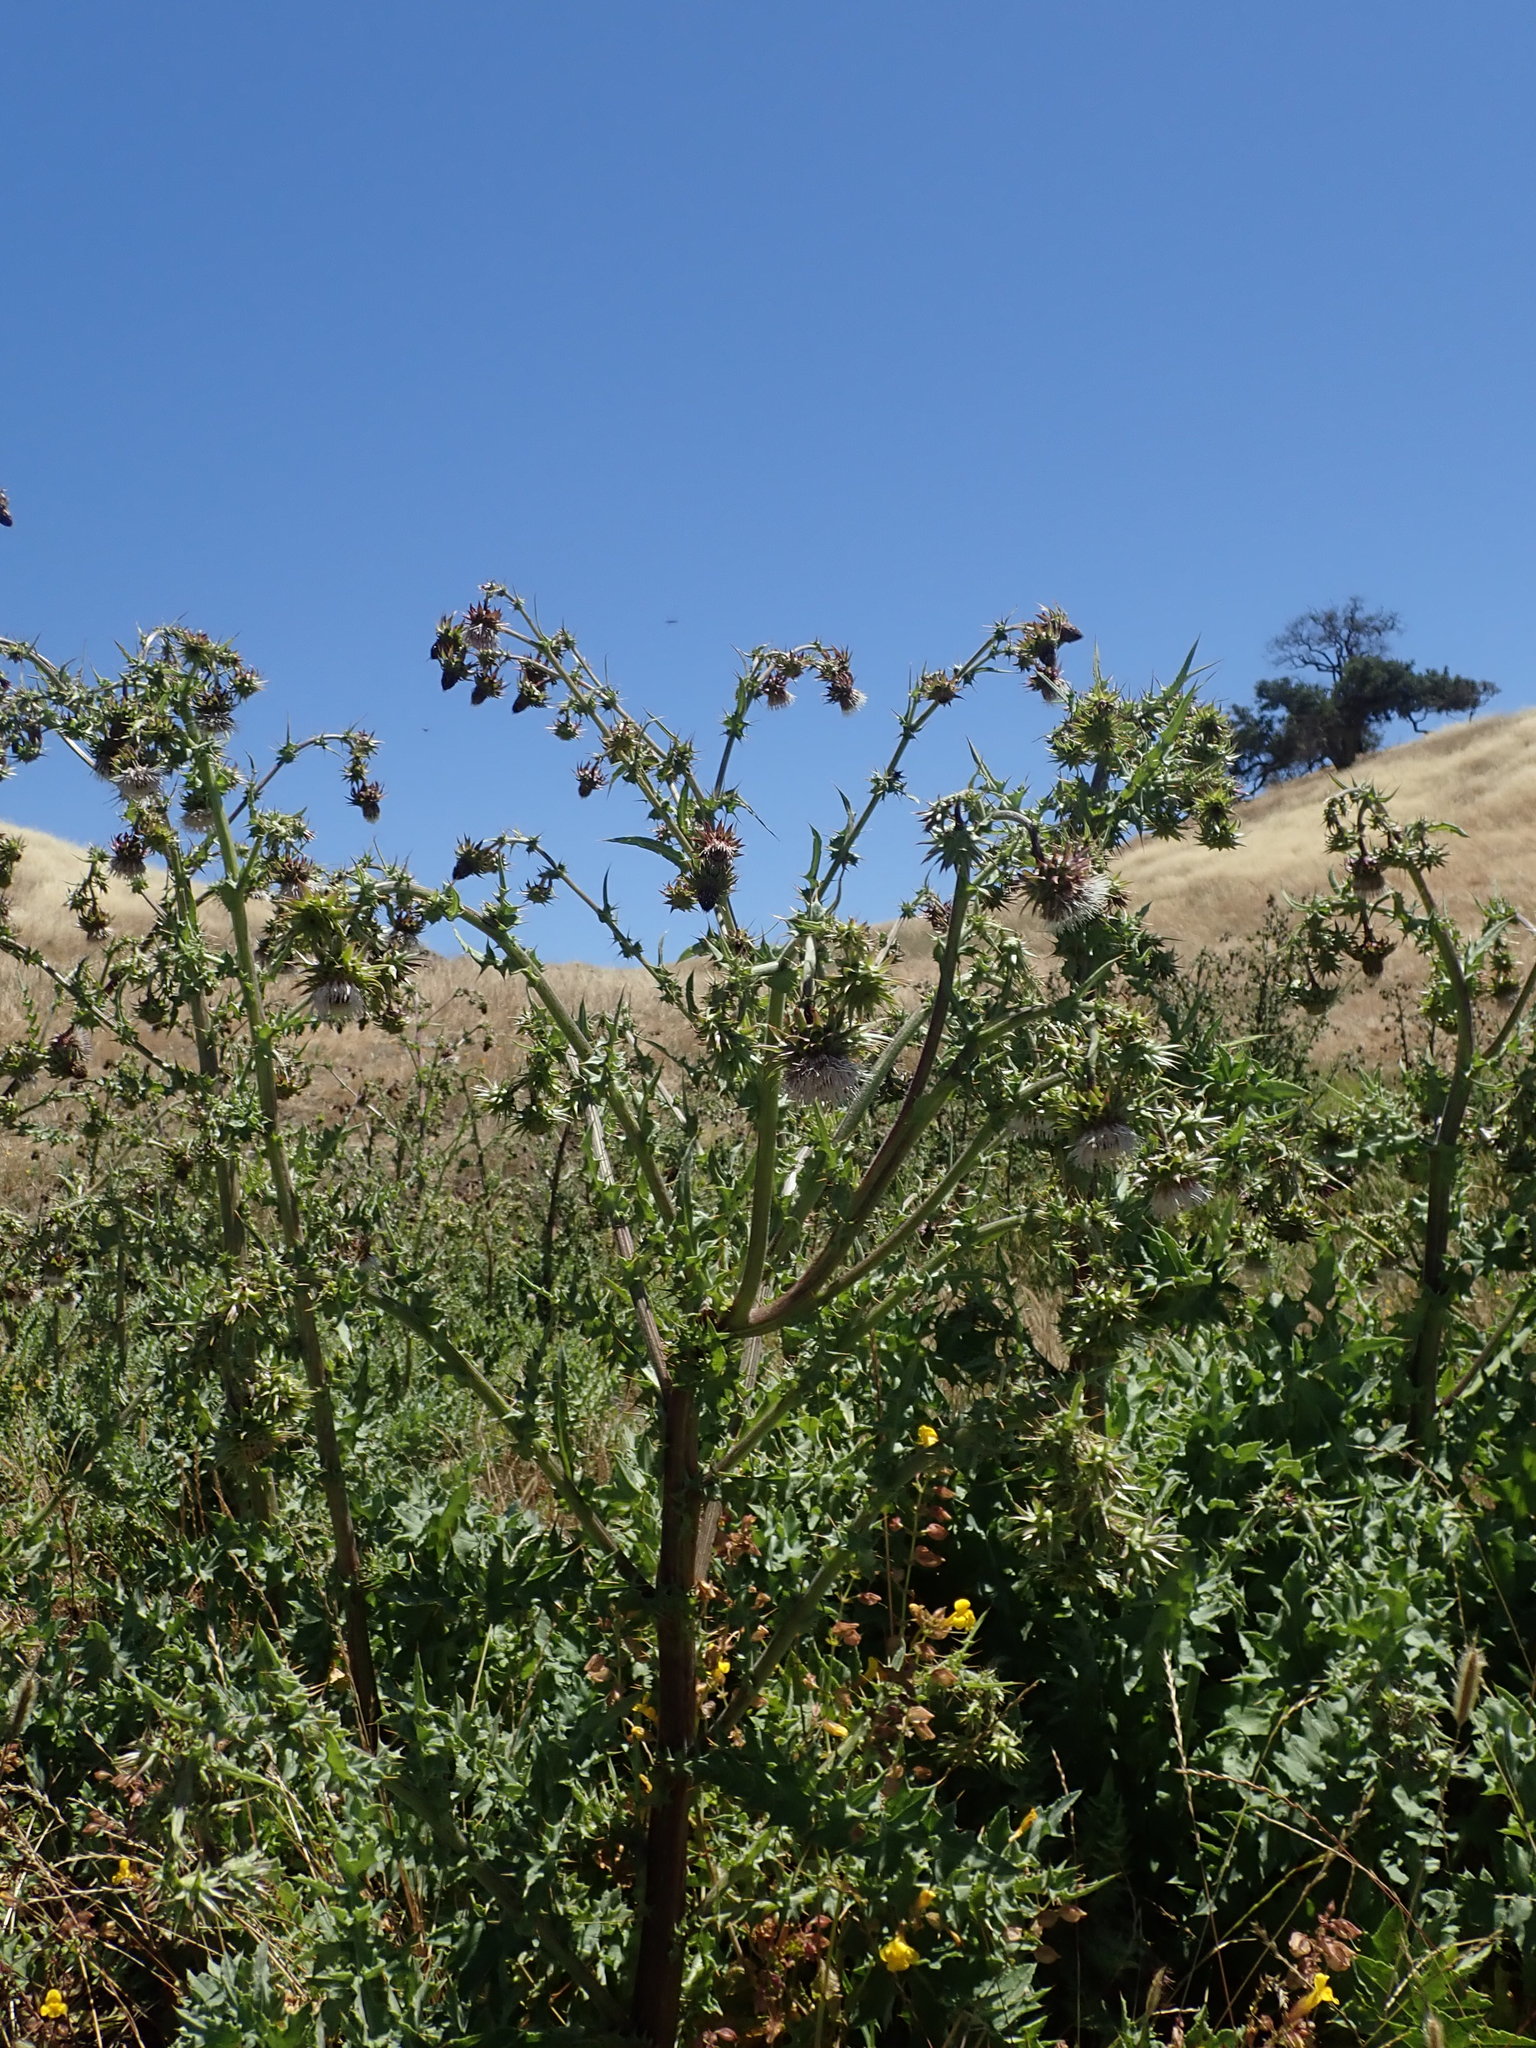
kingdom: Plantae
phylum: Tracheophyta
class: Magnoliopsida
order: Asterales
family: Asteraceae
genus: Cirsium
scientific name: Cirsium fontinale
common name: Fountain thistle
